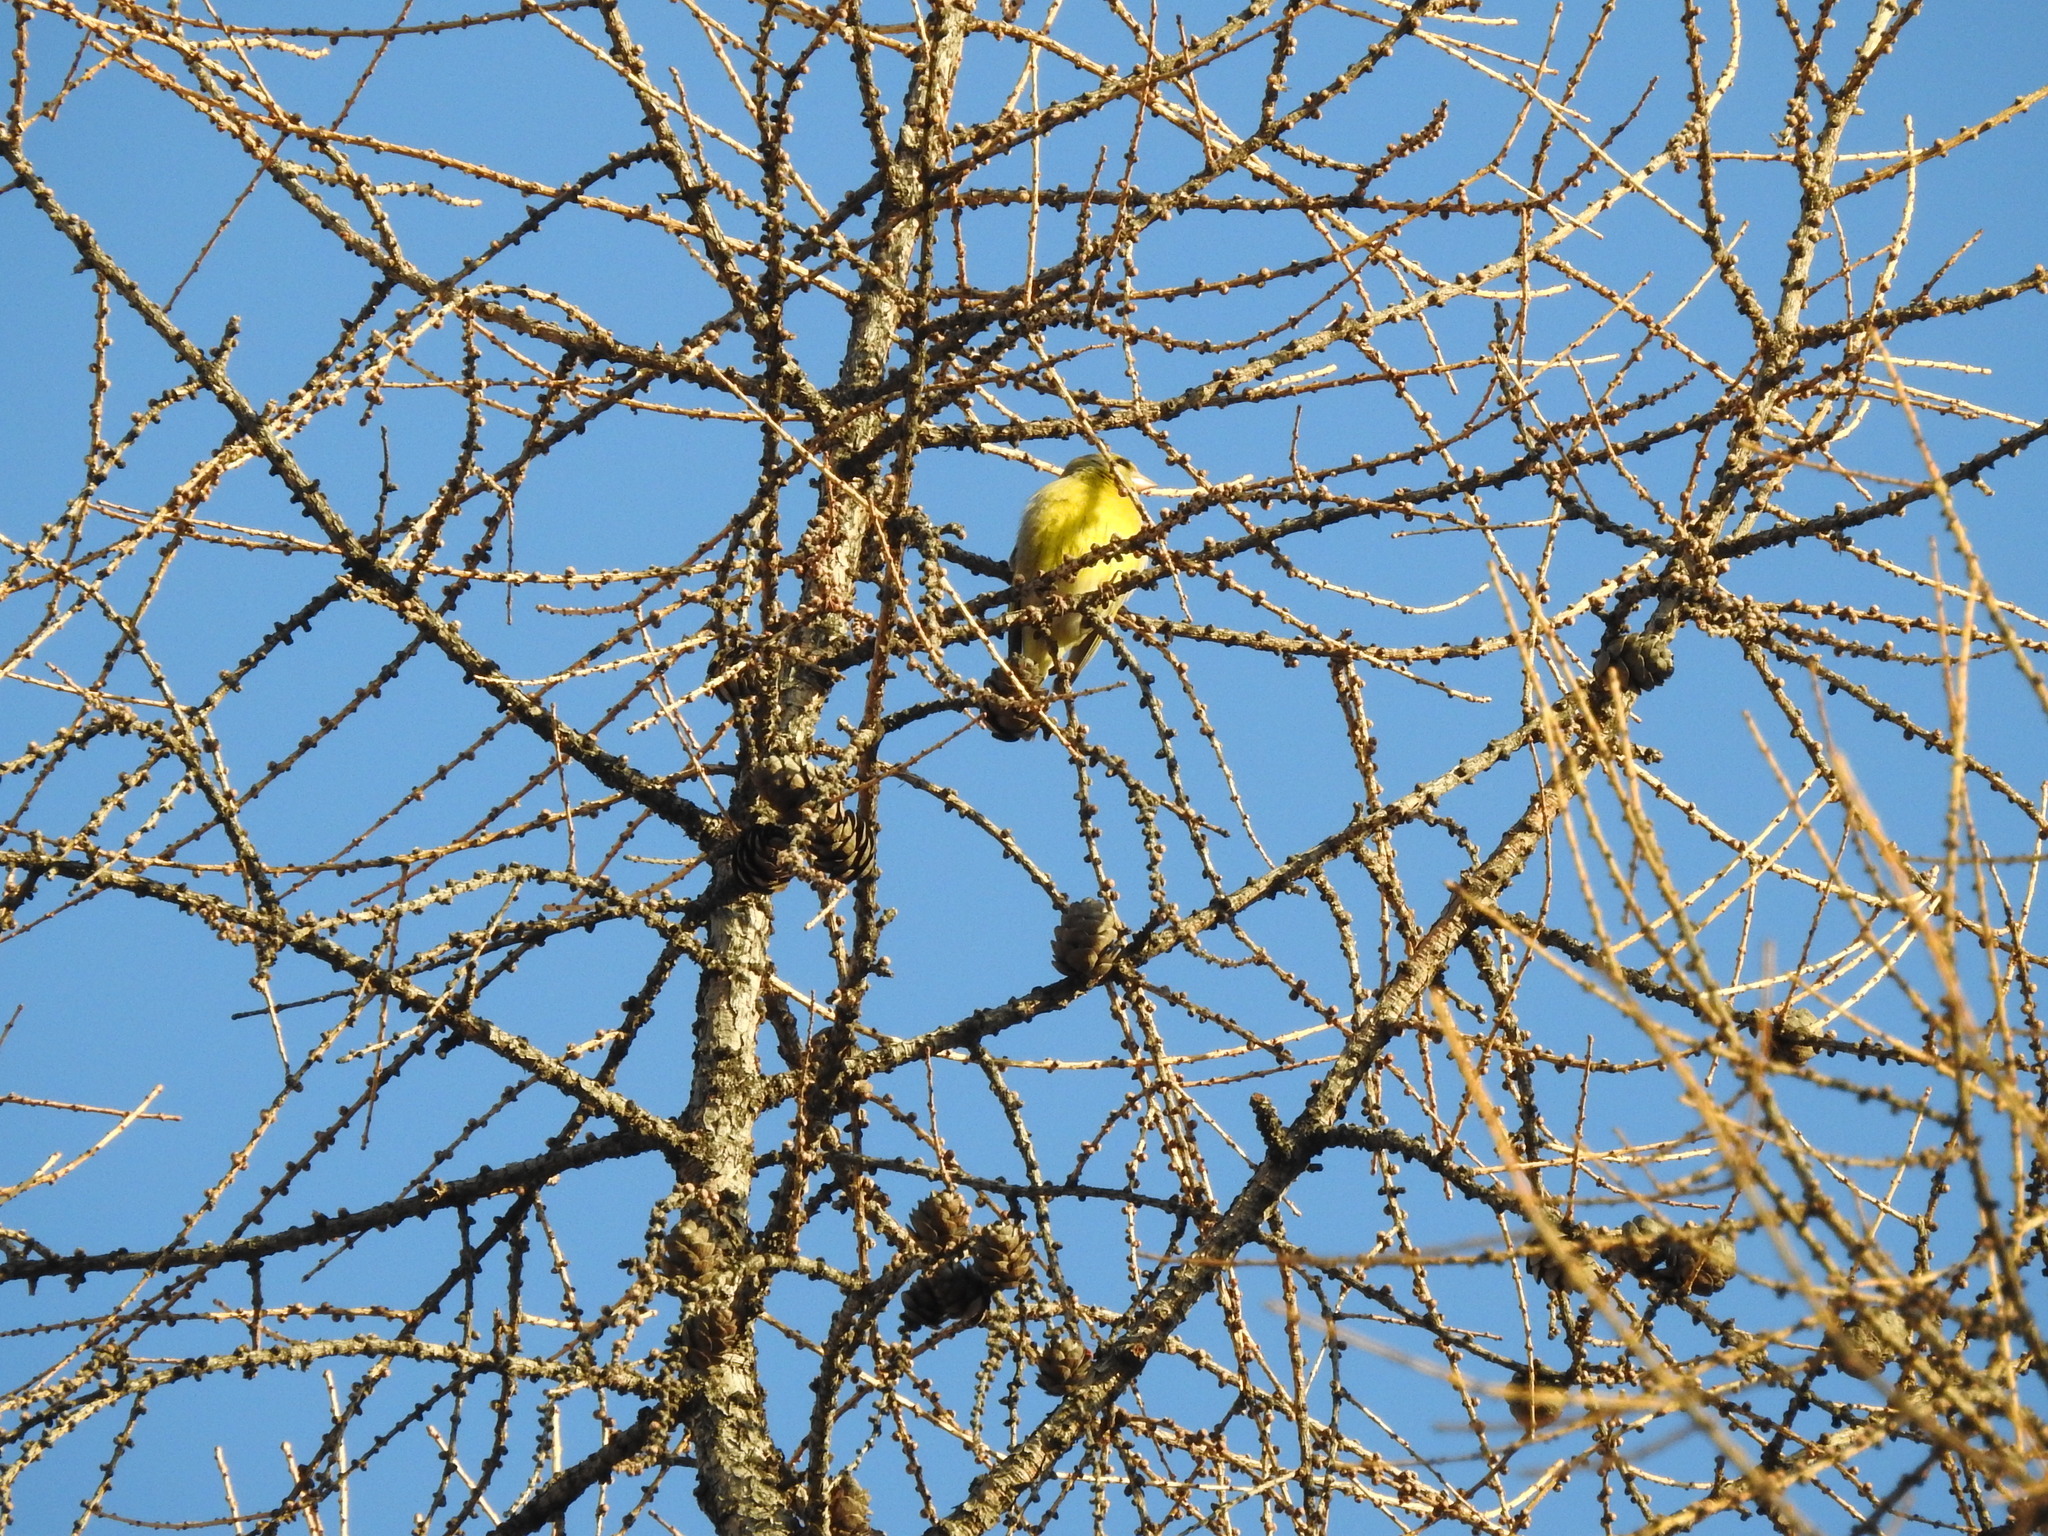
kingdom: Plantae
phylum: Tracheophyta
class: Liliopsida
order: Poales
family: Poaceae
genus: Chloris
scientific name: Chloris chloris
